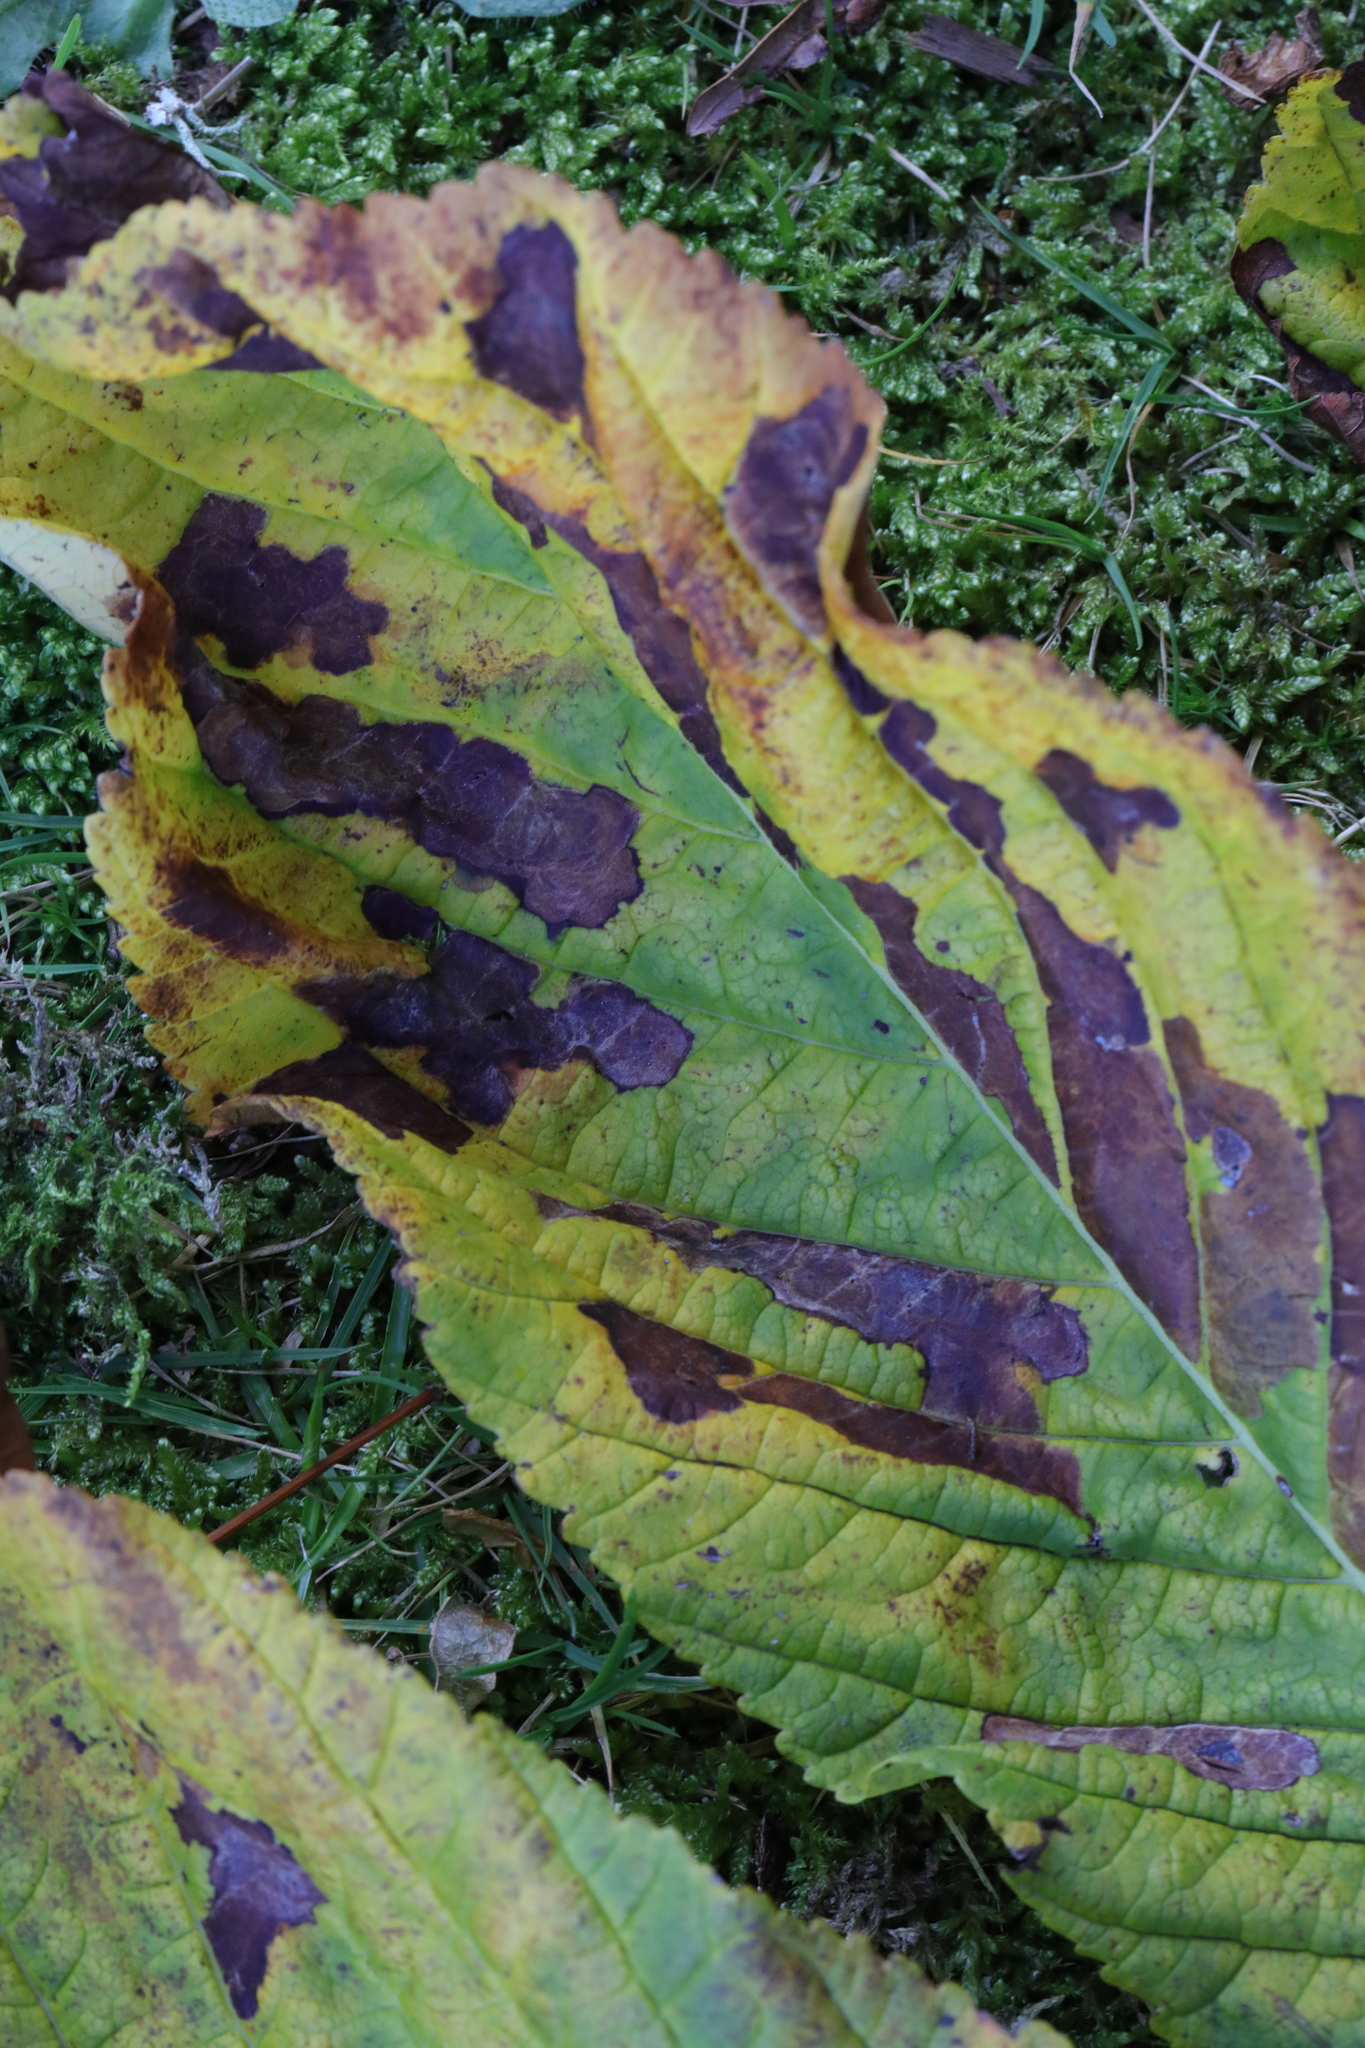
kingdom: Animalia
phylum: Arthropoda
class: Insecta
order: Lepidoptera
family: Gracillariidae
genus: Cameraria
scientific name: Cameraria ohridella
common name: Horse-chestnut leaf-miner
